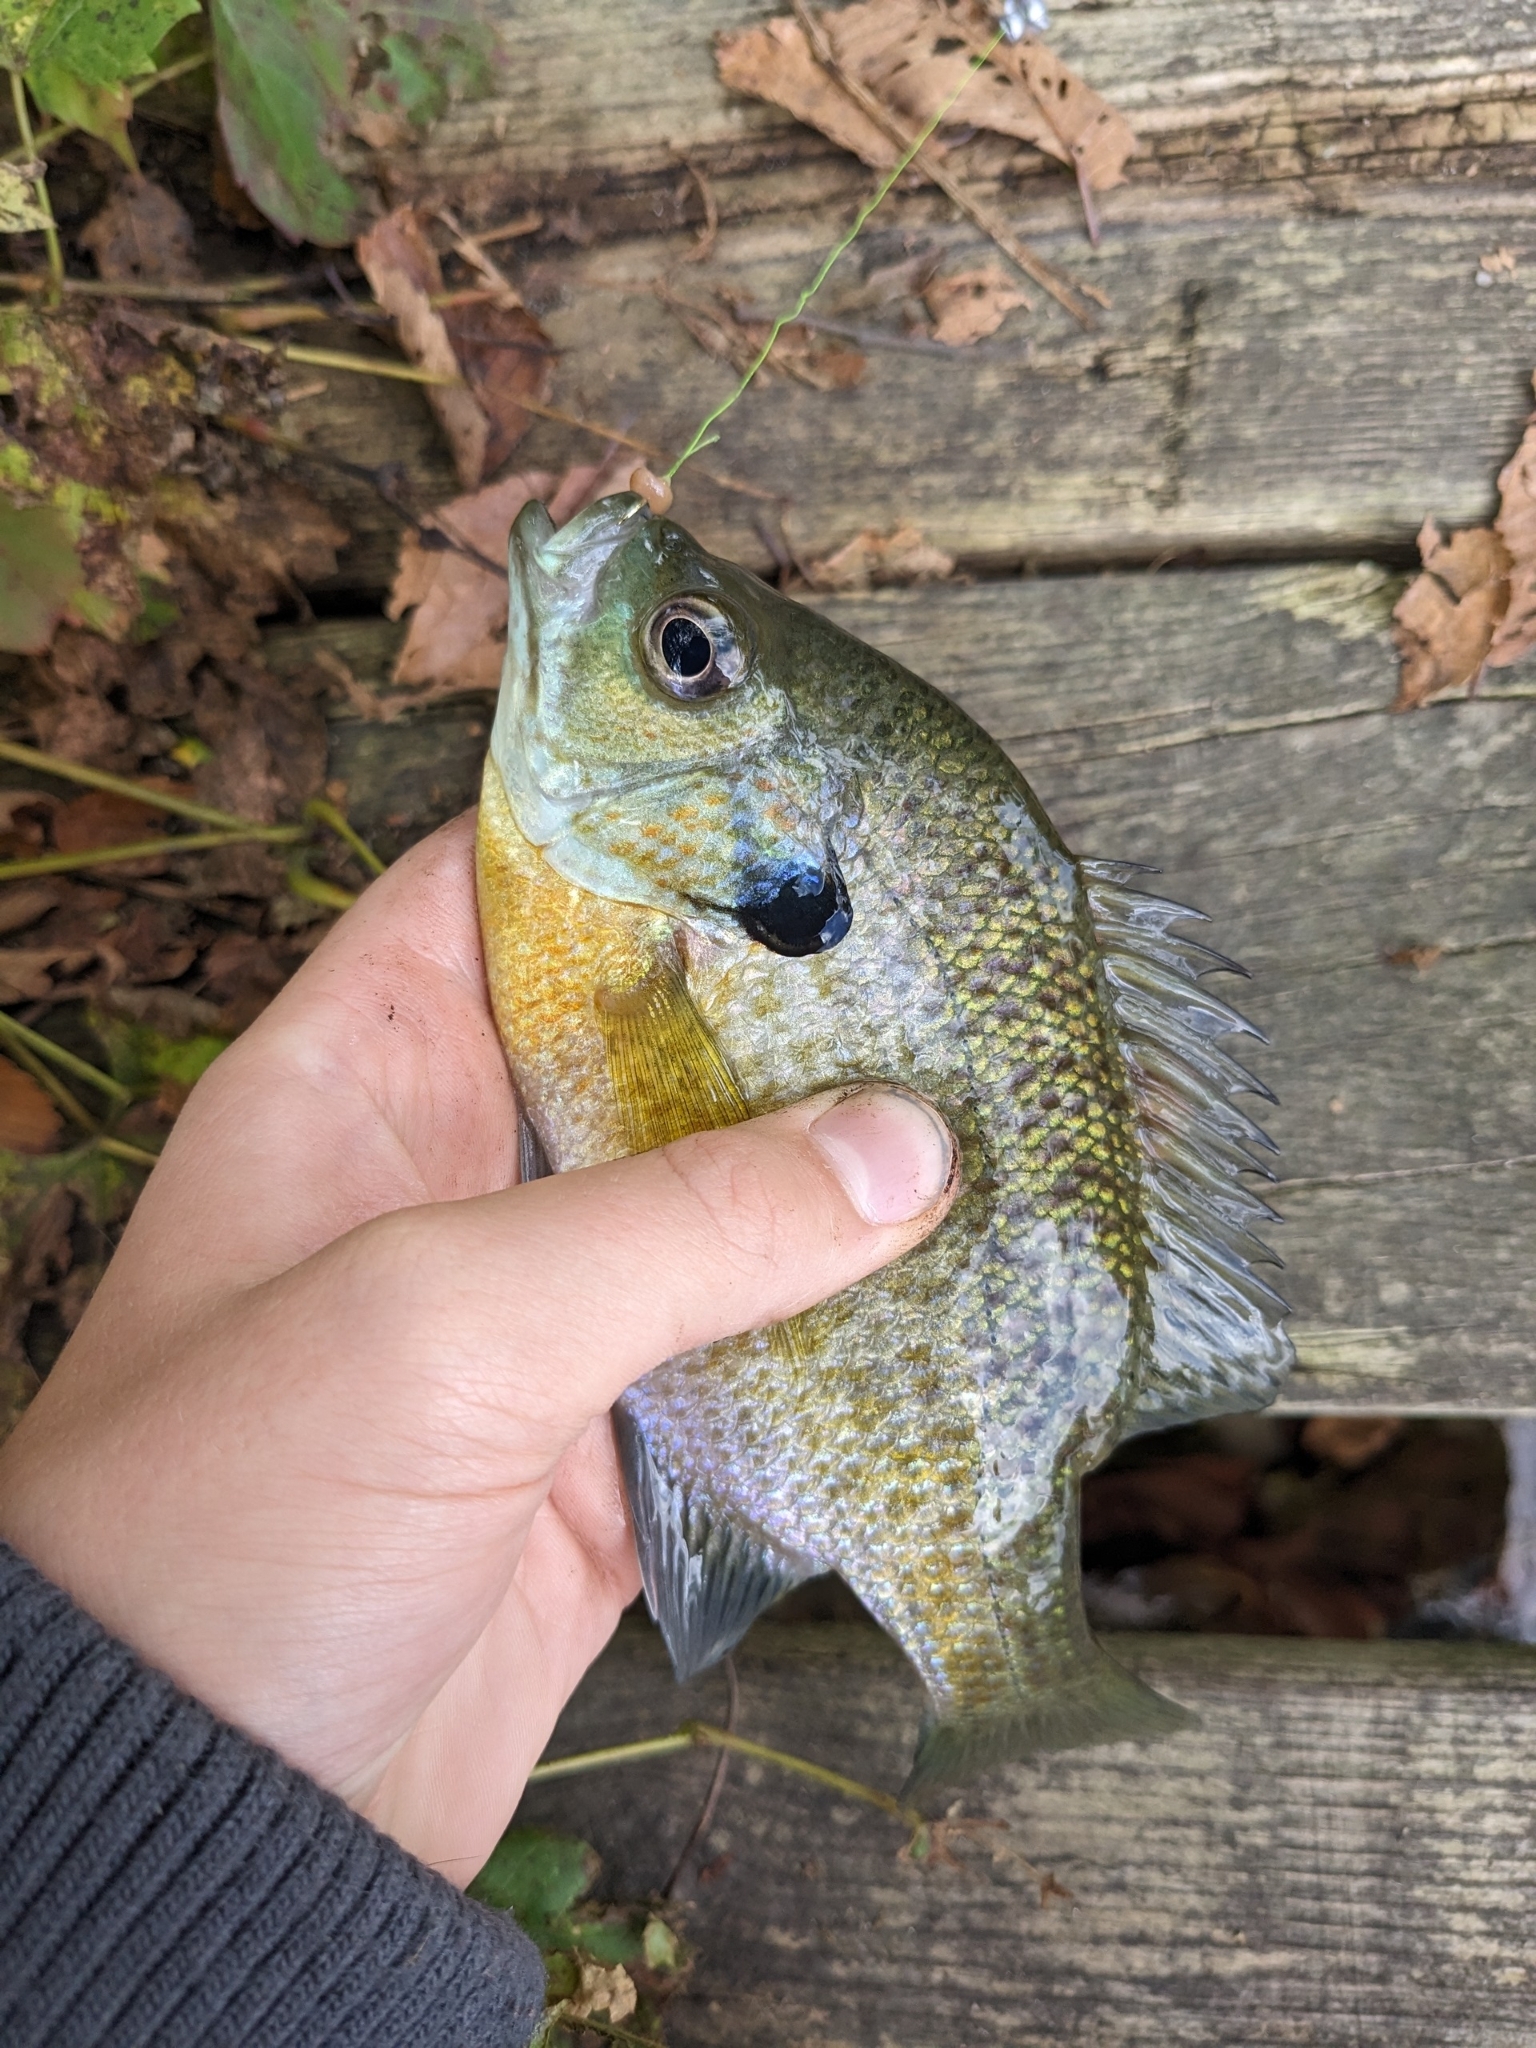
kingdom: Animalia
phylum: Chordata
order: Perciformes
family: Centrarchidae
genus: Lepomis
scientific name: Lepomis macrochirus
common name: Bluegill
